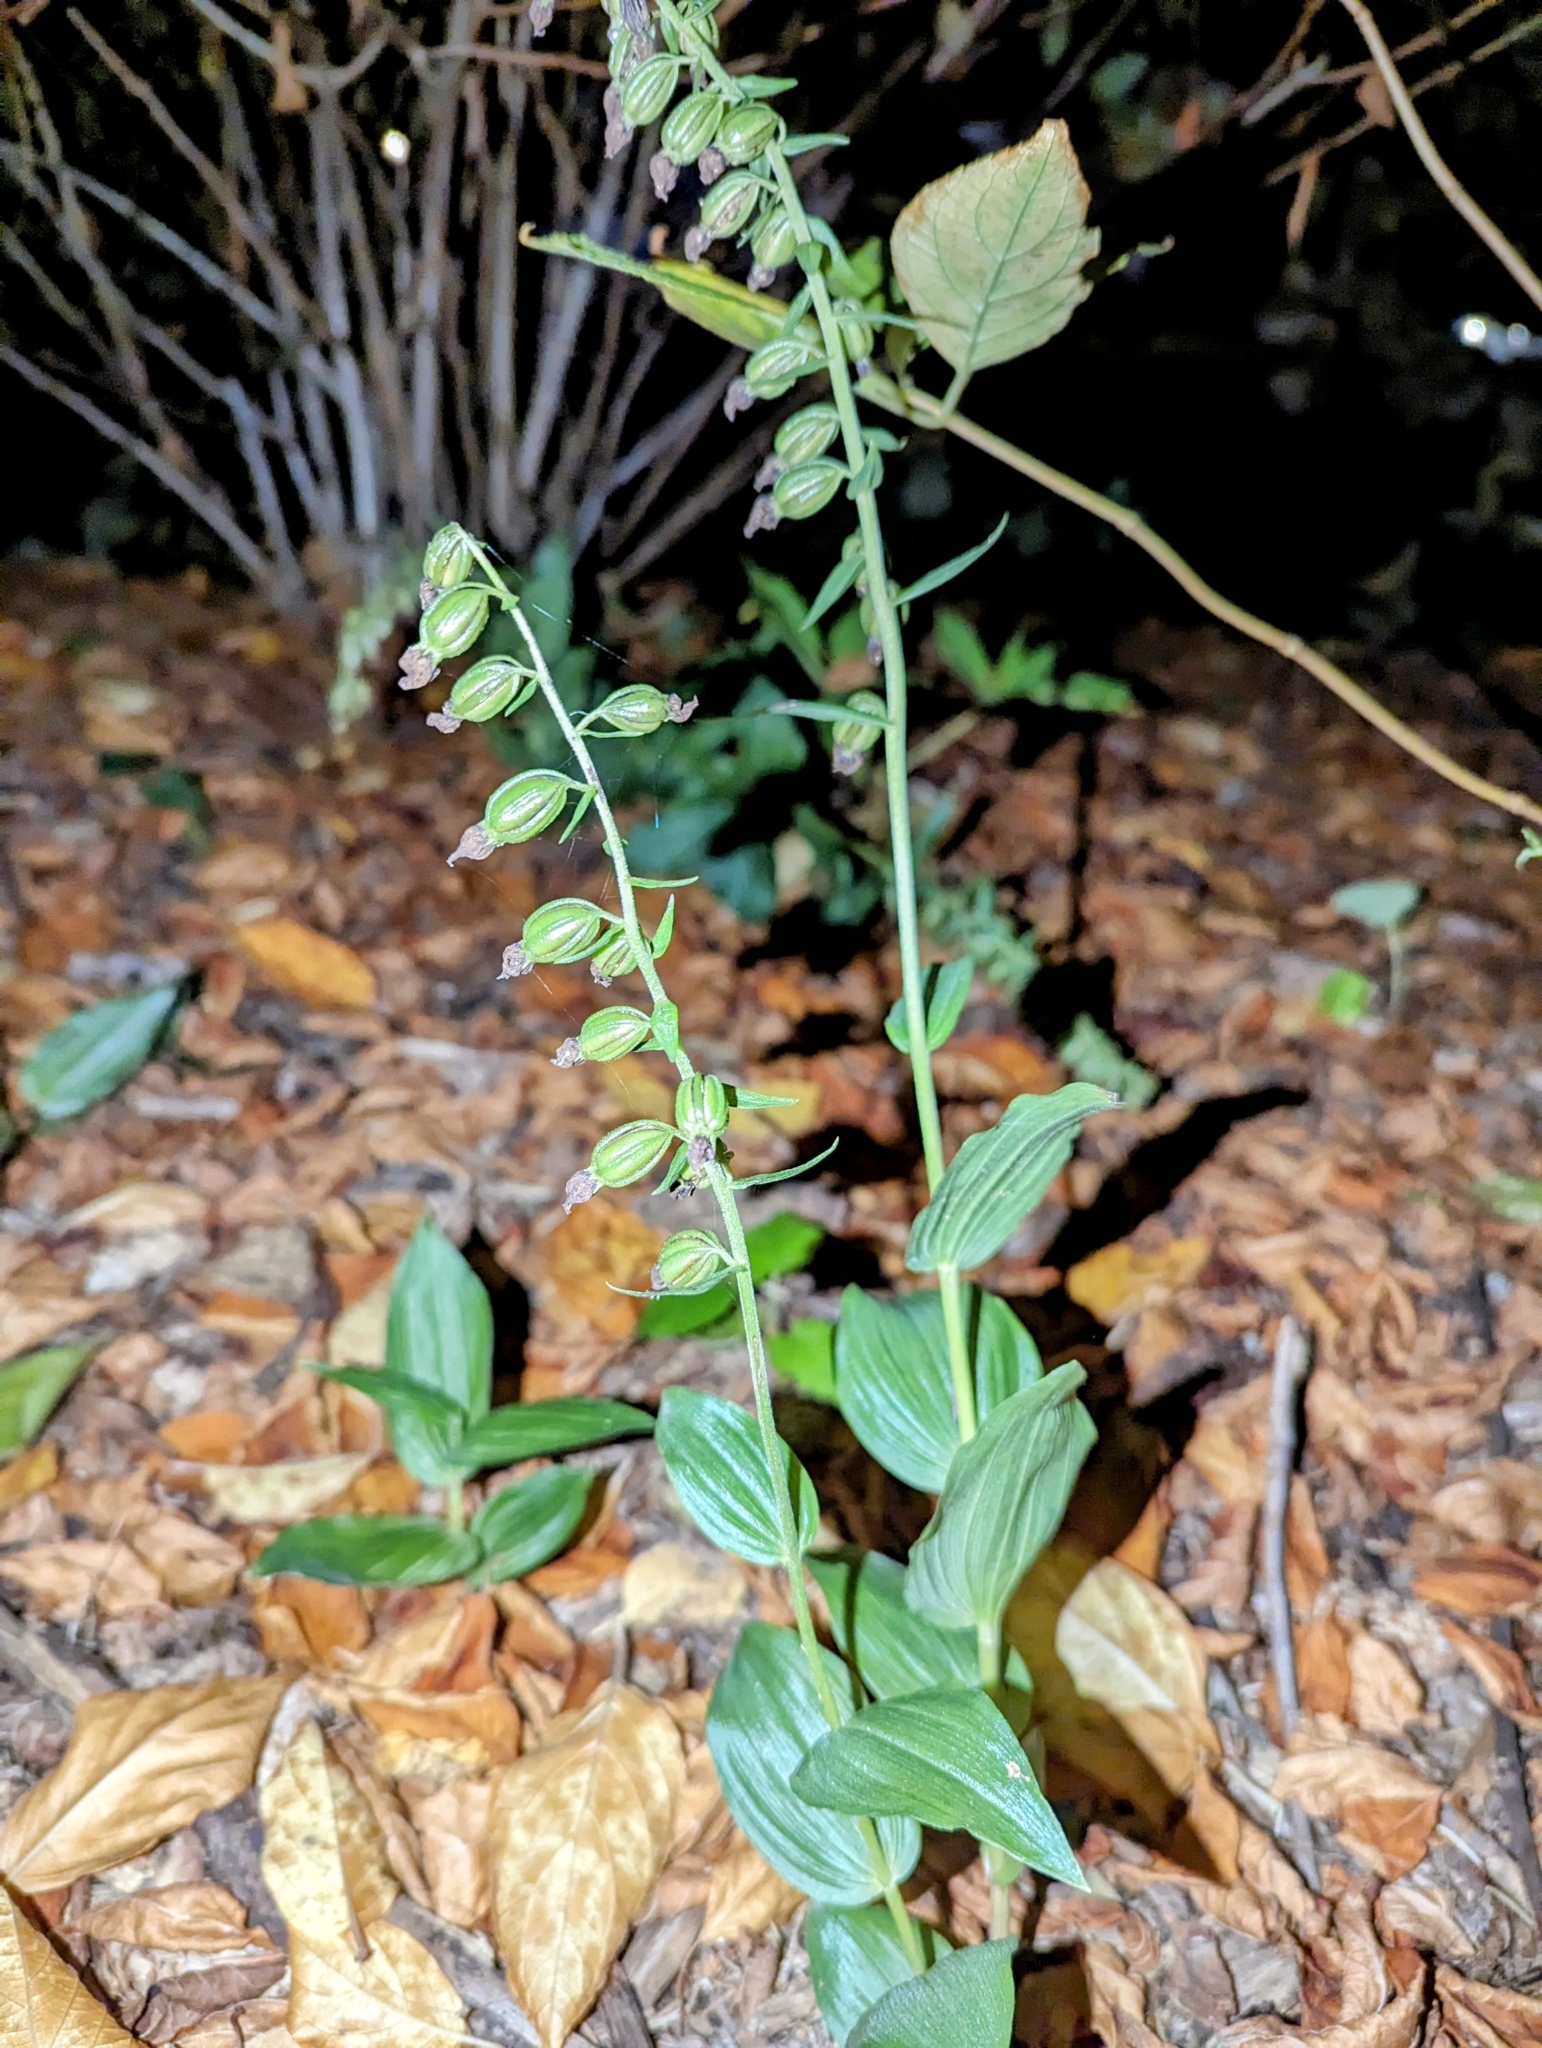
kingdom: Plantae
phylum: Tracheophyta
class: Liliopsida
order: Asparagales
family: Orchidaceae
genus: Epipactis
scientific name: Epipactis helleborine
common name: Broad-leaved helleborine
